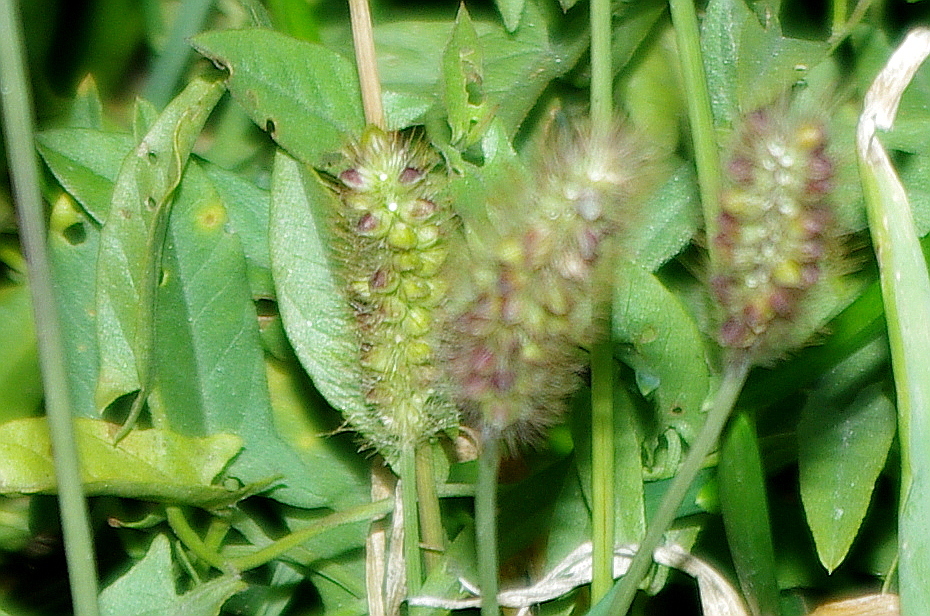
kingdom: Plantae
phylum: Tracheophyta
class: Liliopsida
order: Poales
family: Poaceae
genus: Setaria
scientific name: Setaria pumila
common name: Yellow bristle-grass
